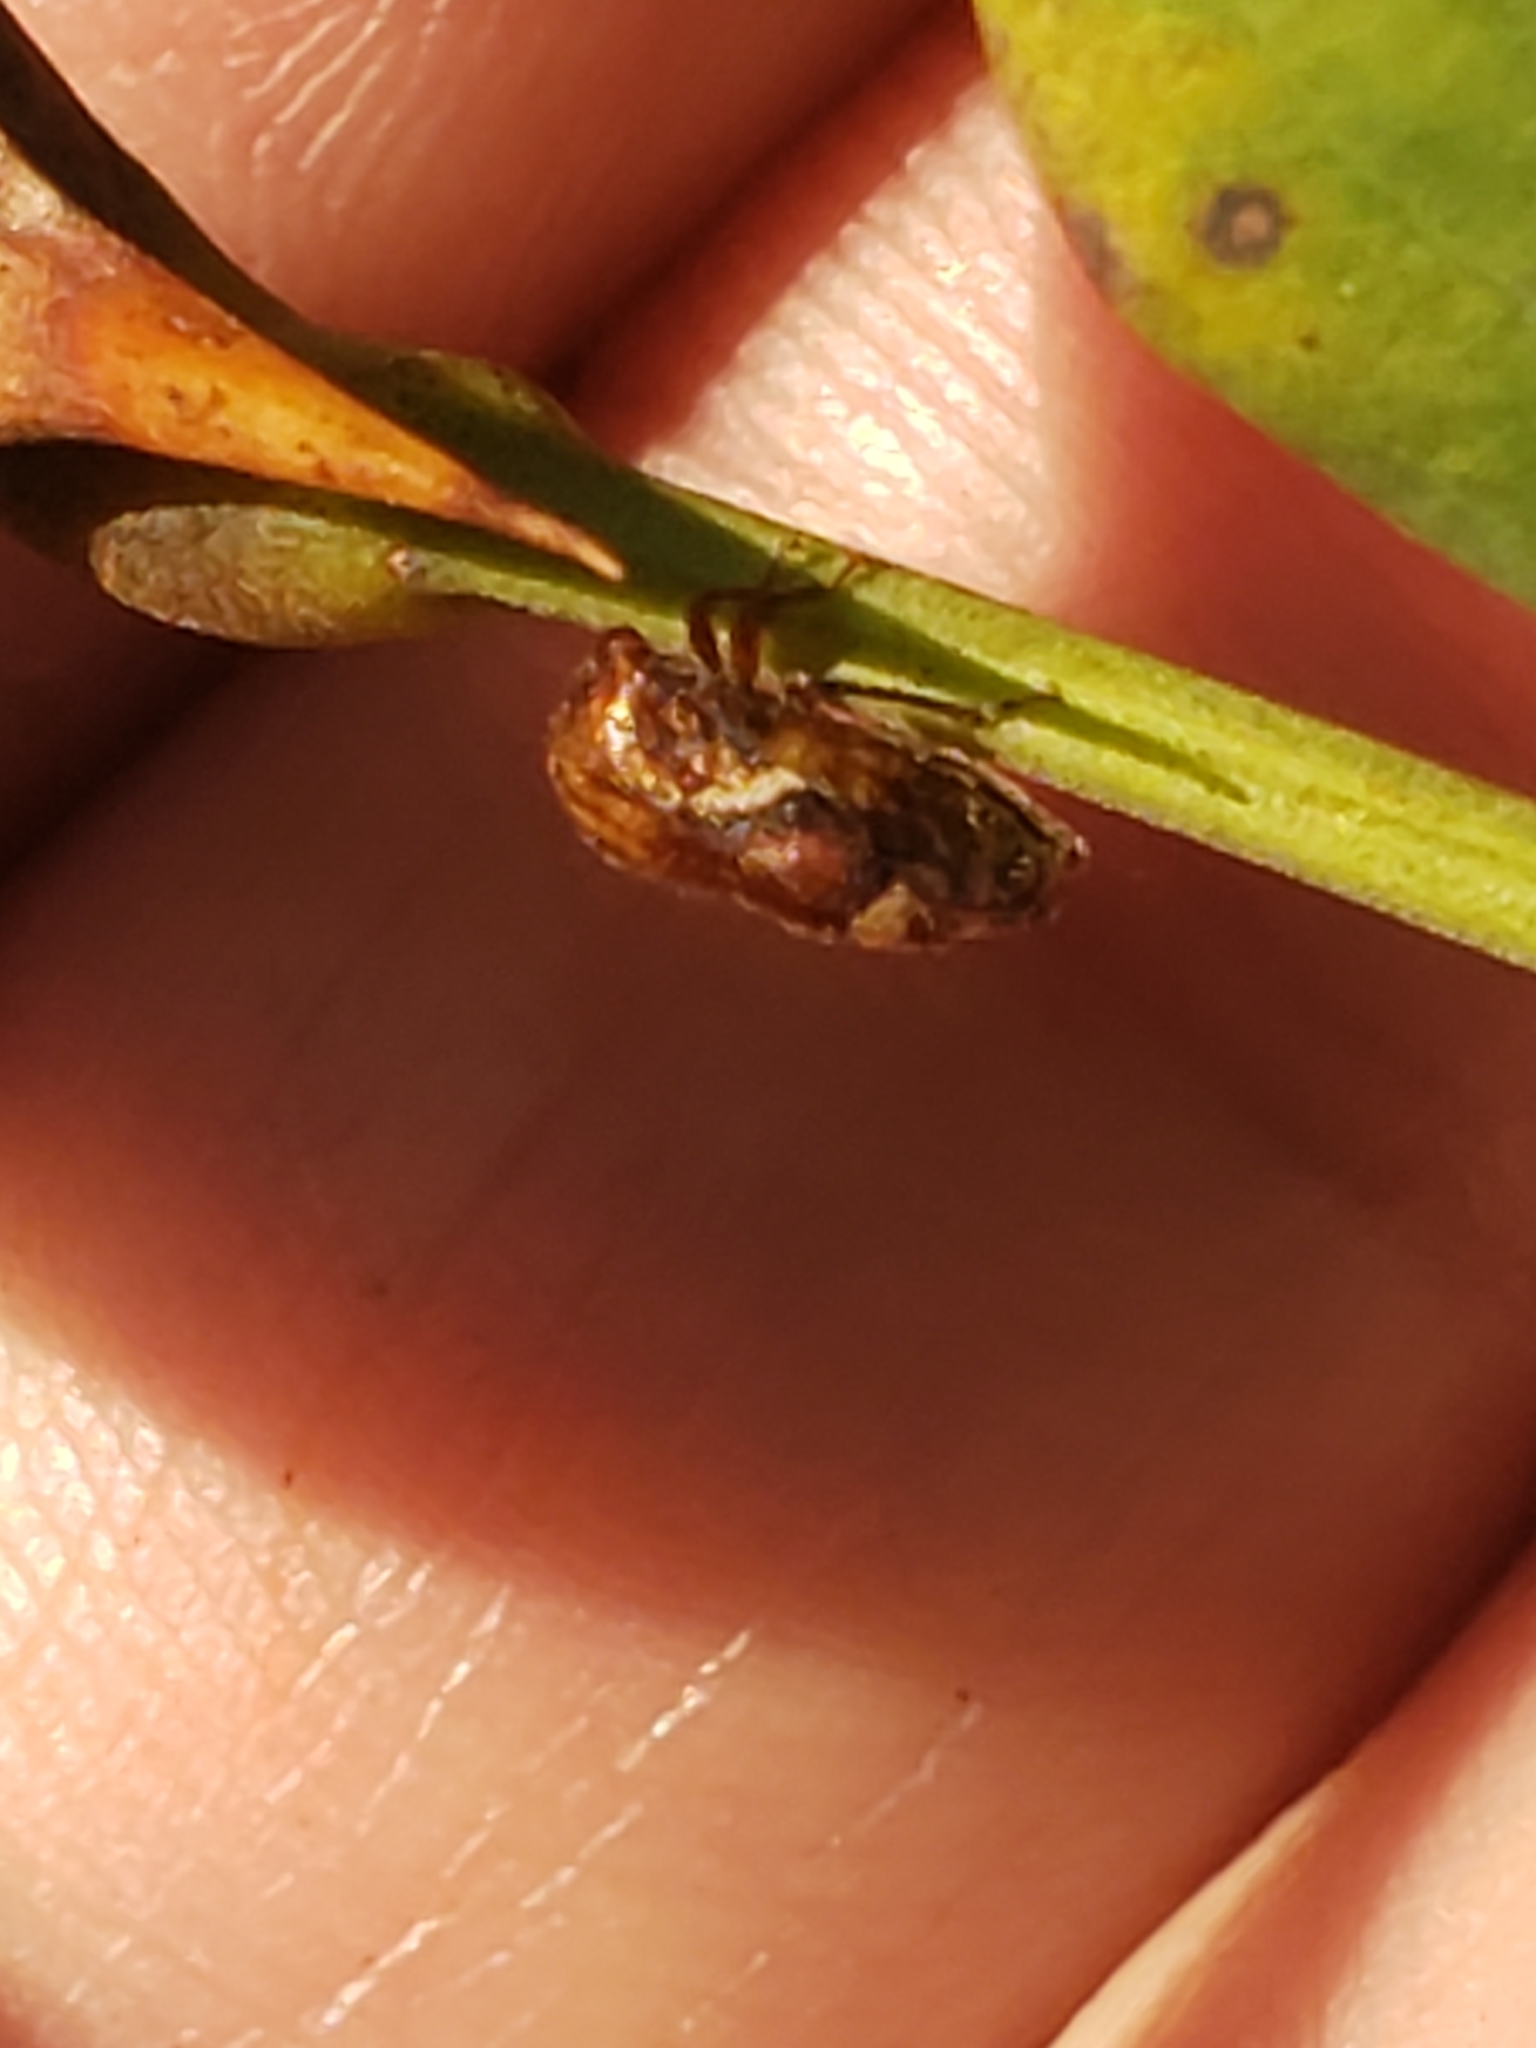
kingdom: Animalia
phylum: Arthropoda
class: Insecta
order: Hemiptera
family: Membracidae
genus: Vanduzea
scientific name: Vanduzea arquata
